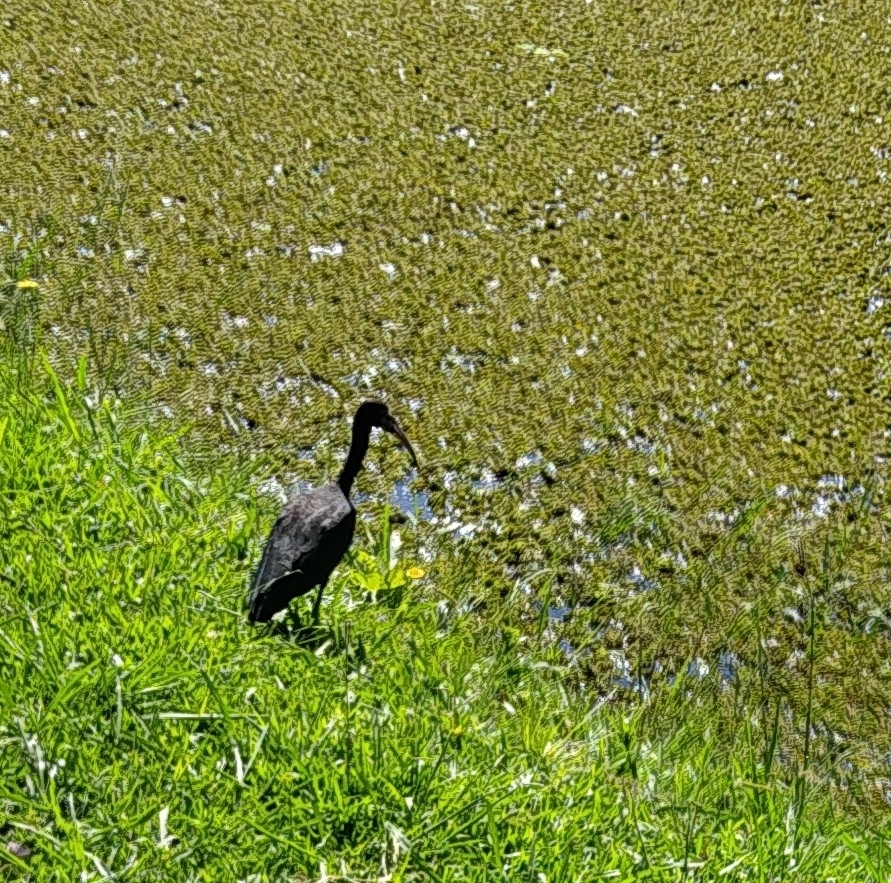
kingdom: Animalia
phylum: Chordata
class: Aves
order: Pelecaniformes
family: Threskiornithidae
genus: Phimosus
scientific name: Phimosus infuscatus
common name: Bare-faced ibis
